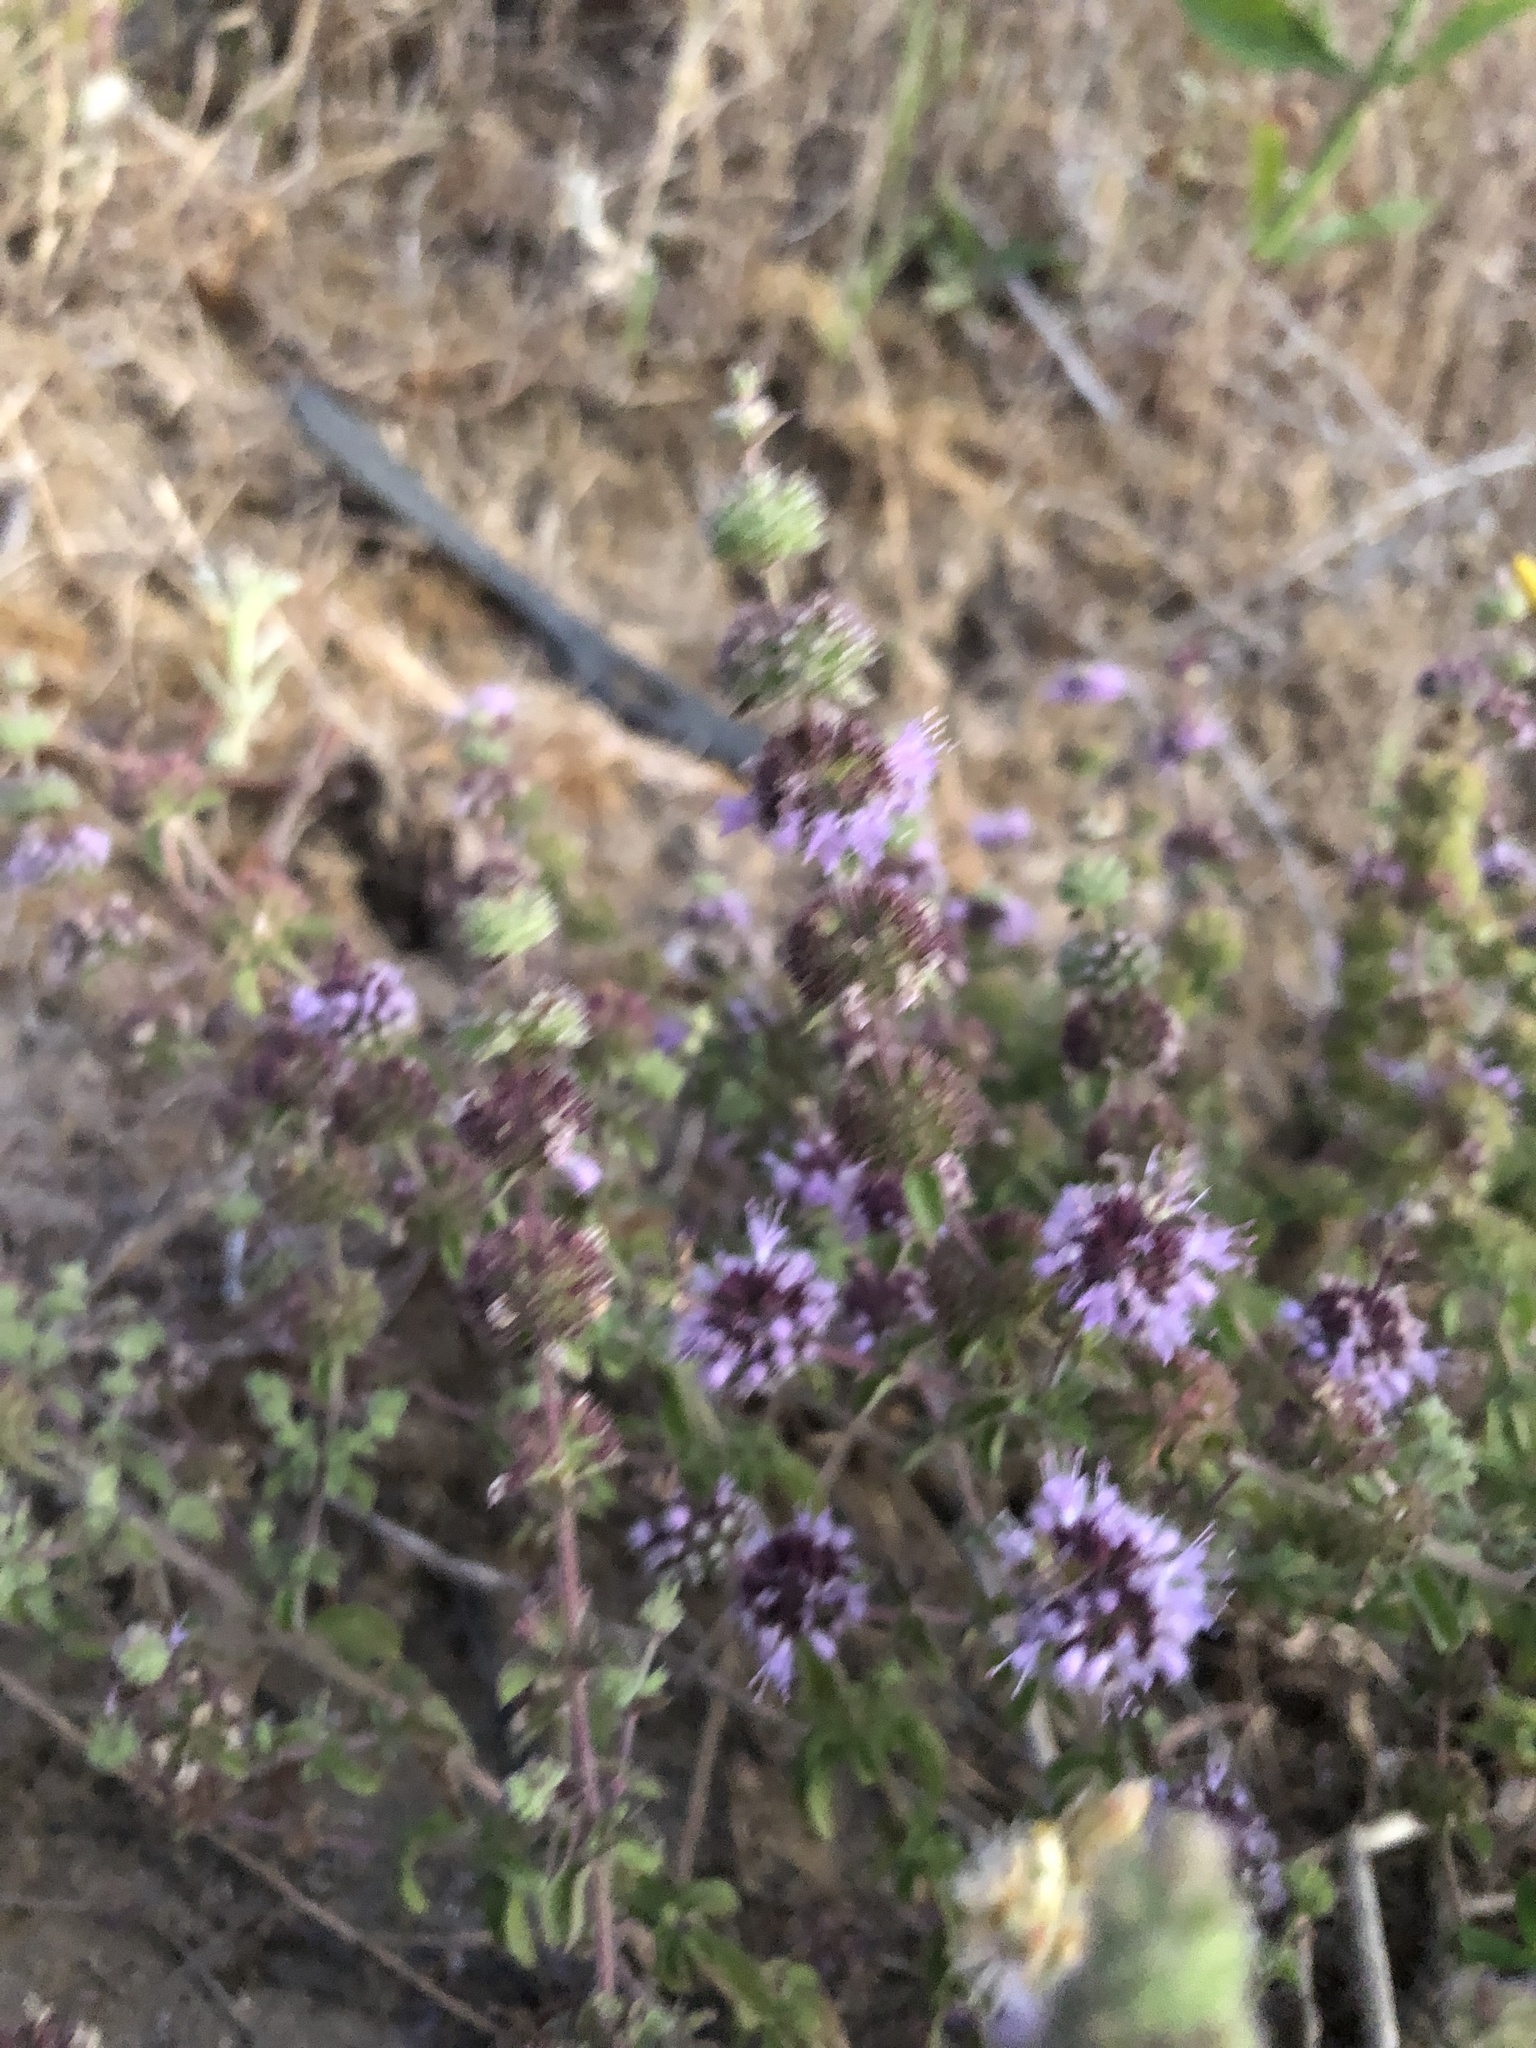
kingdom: Plantae
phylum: Tracheophyta
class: Magnoliopsida
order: Lamiales
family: Lamiaceae
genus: Mentha
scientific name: Mentha pulegium
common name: Pennyroyal
